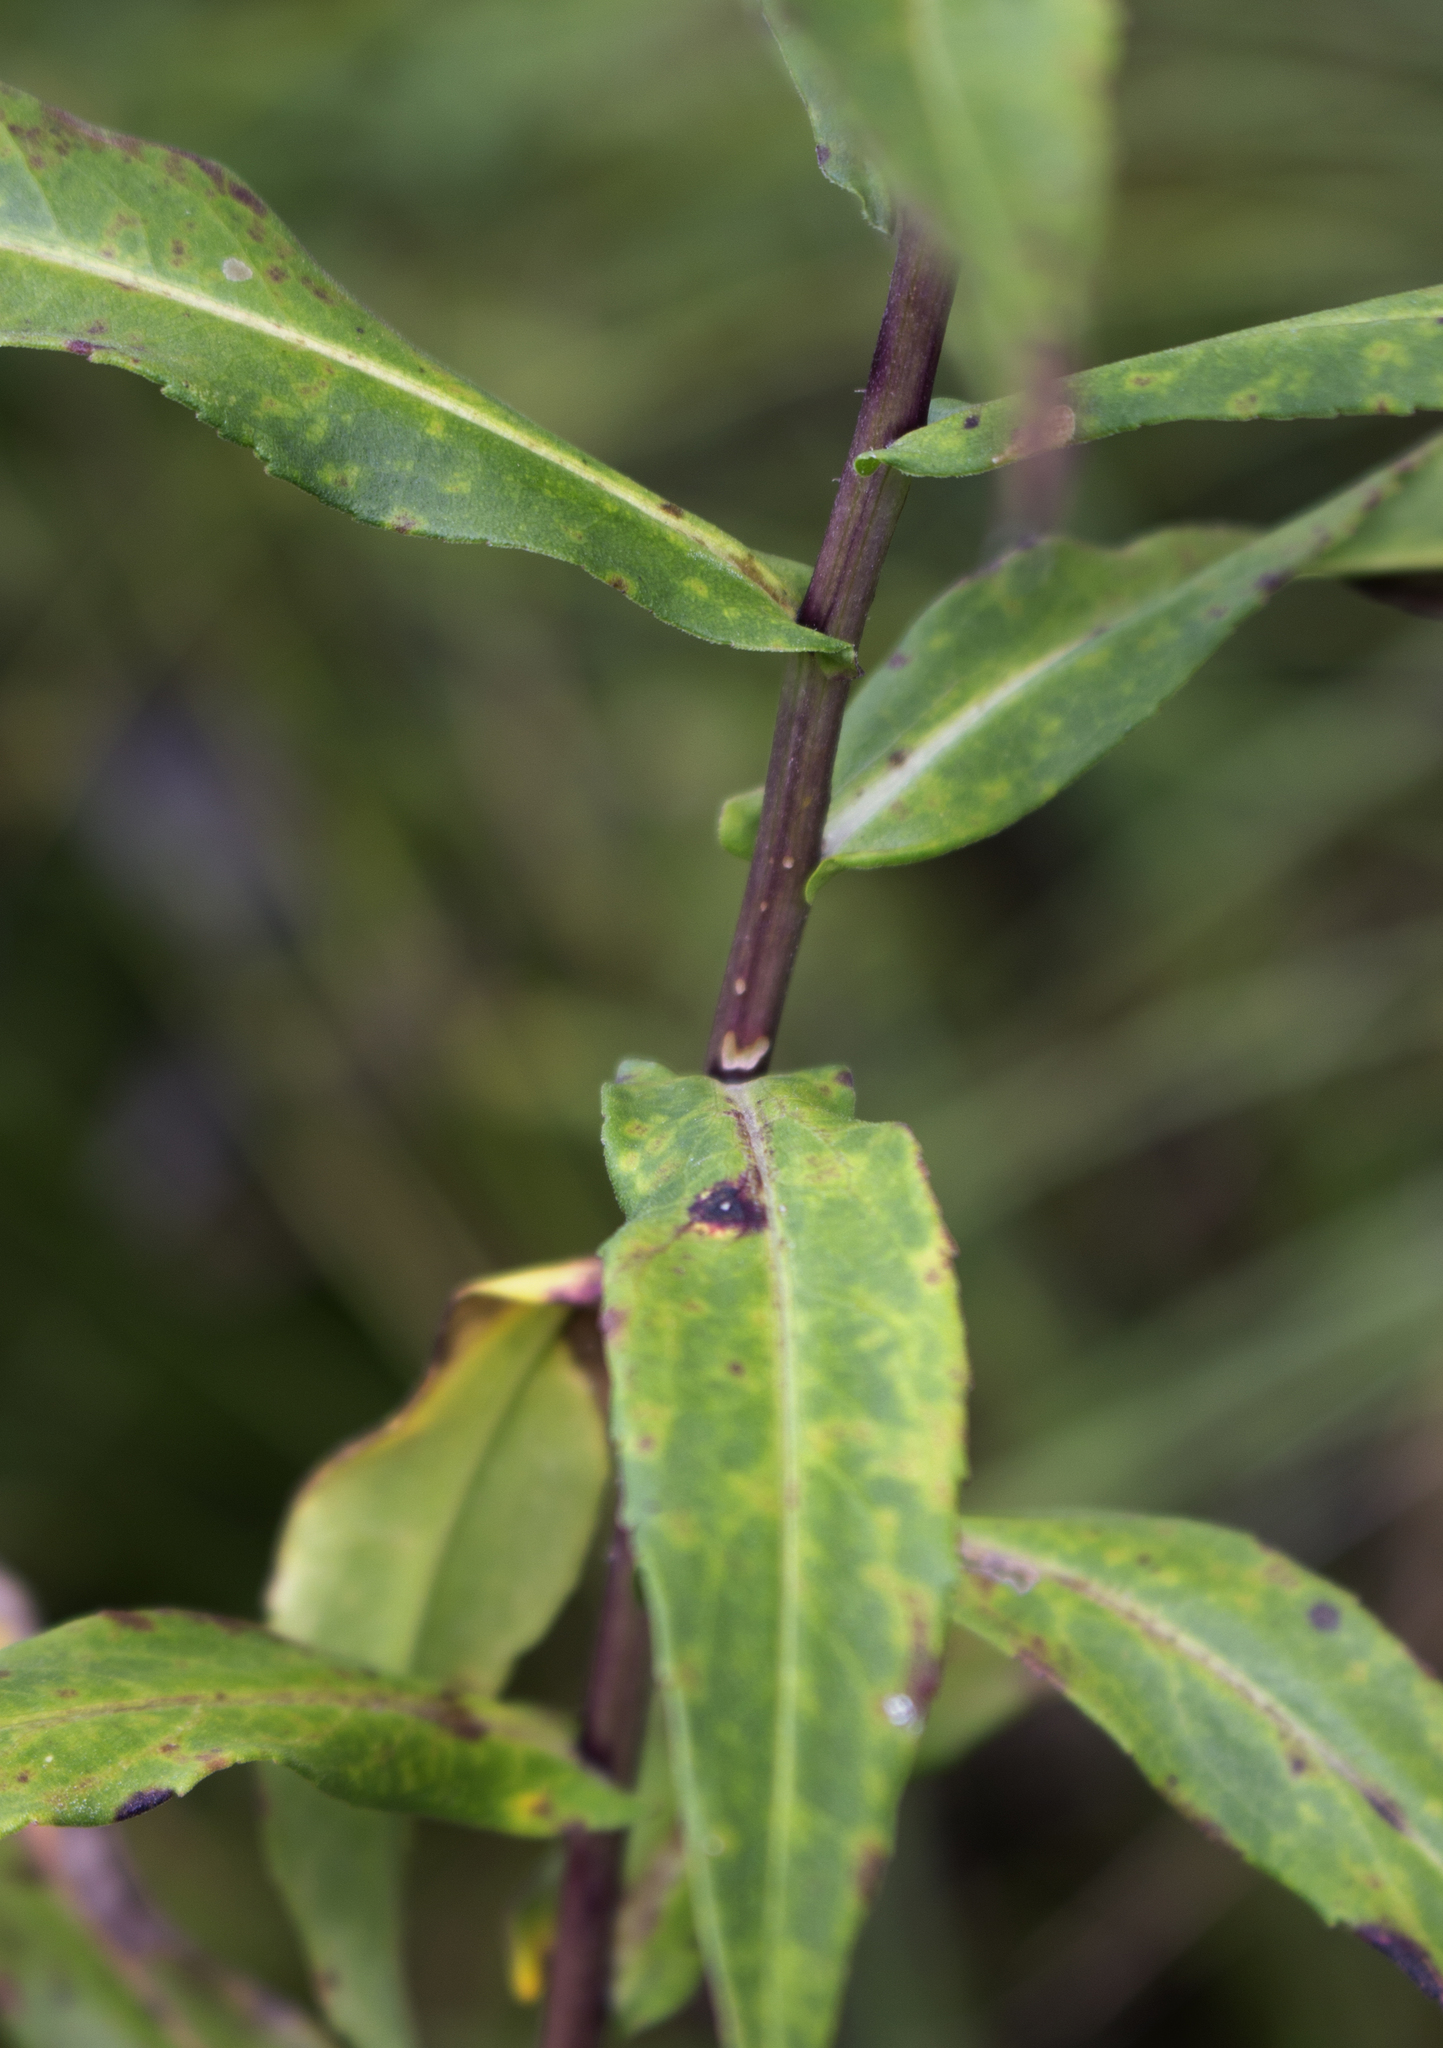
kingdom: Plantae
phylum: Tracheophyta
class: Magnoliopsida
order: Asterales
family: Asteraceae
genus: Symphyotrichum
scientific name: Symphyotrichum firmum
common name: Shining aster
